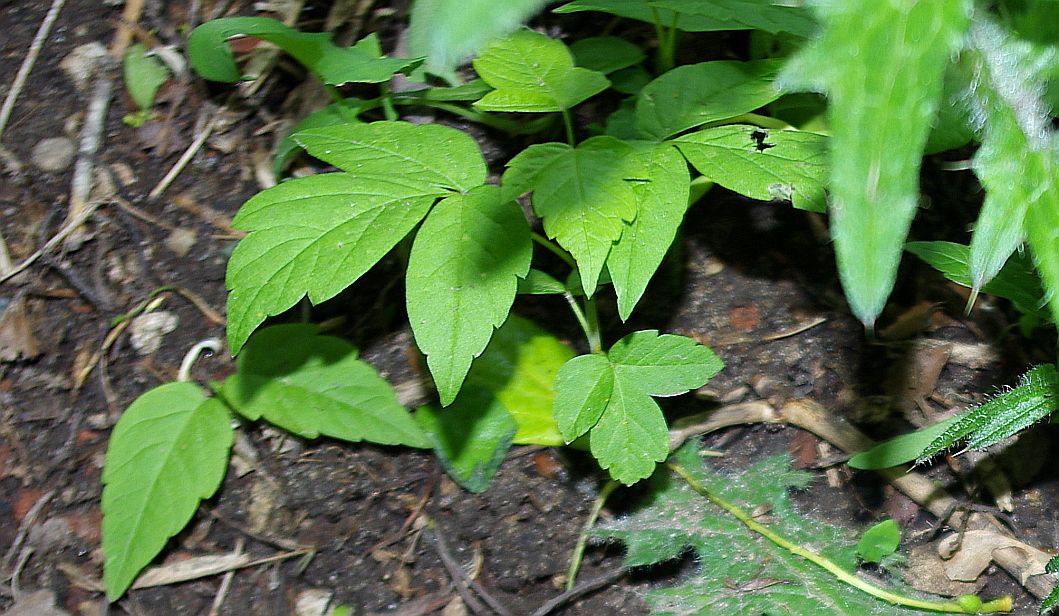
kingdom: Plantae
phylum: Tracheophyta
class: Magnoliopsida
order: Sapindales
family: Sapindaceae
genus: Acer
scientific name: Acer negundo
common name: Ashleaf maple
